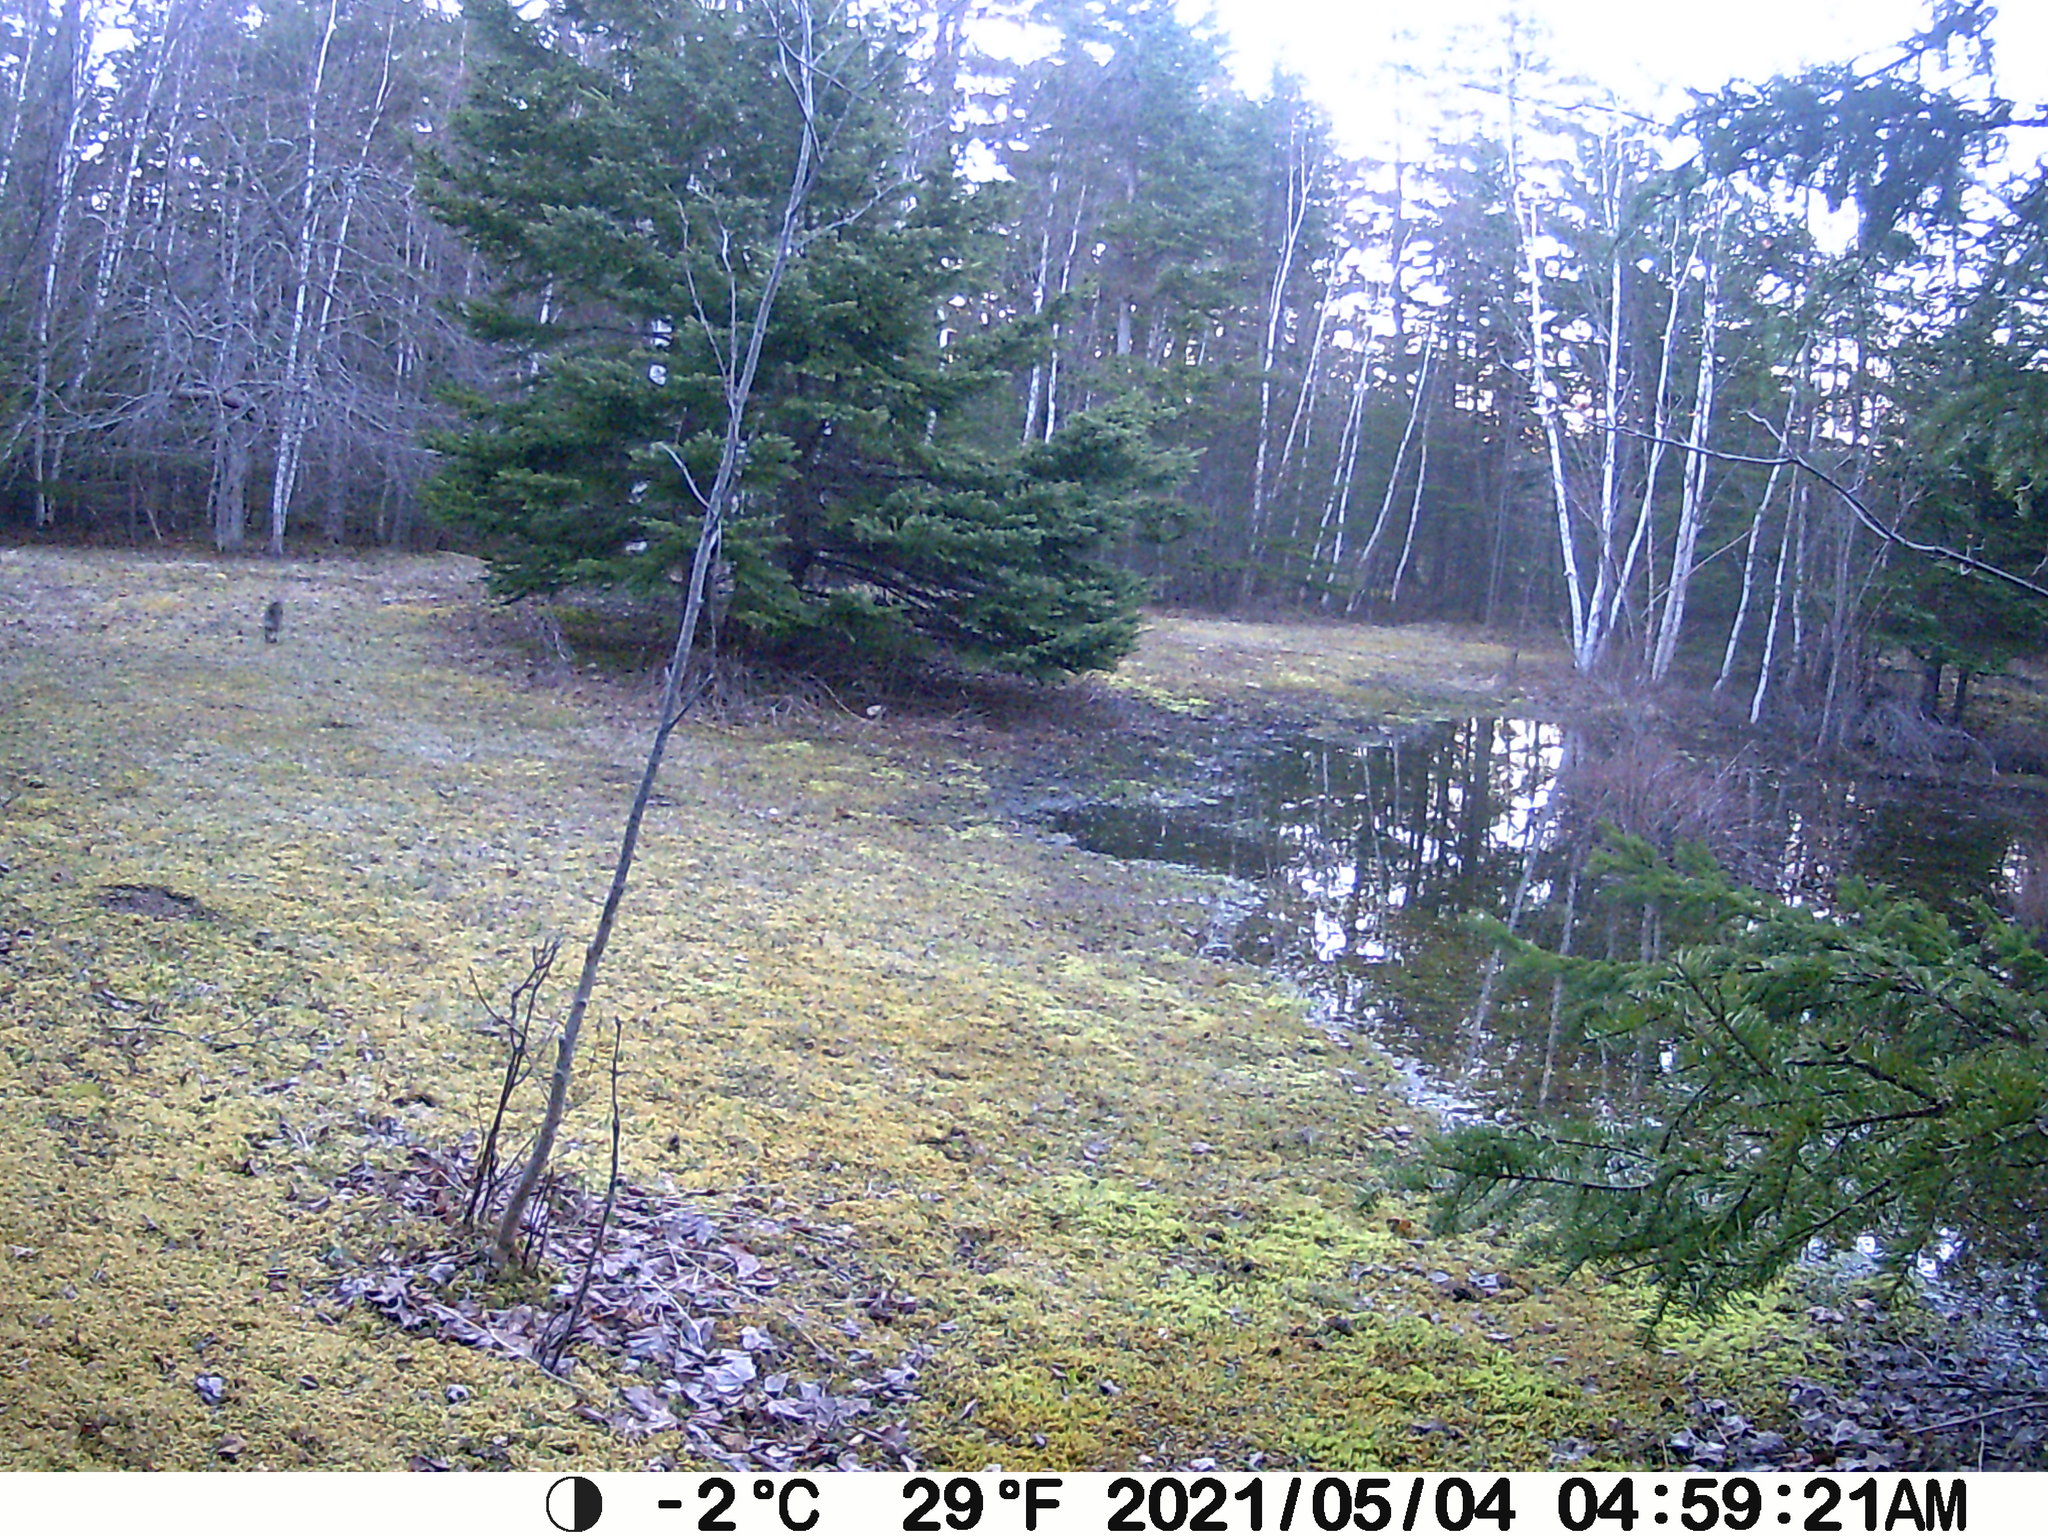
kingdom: Animalia
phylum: Chordata
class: Mammalia
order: Lagomorpha
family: Leporidae
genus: Lepus
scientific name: Lepus americanus
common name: Snowshoe hare
